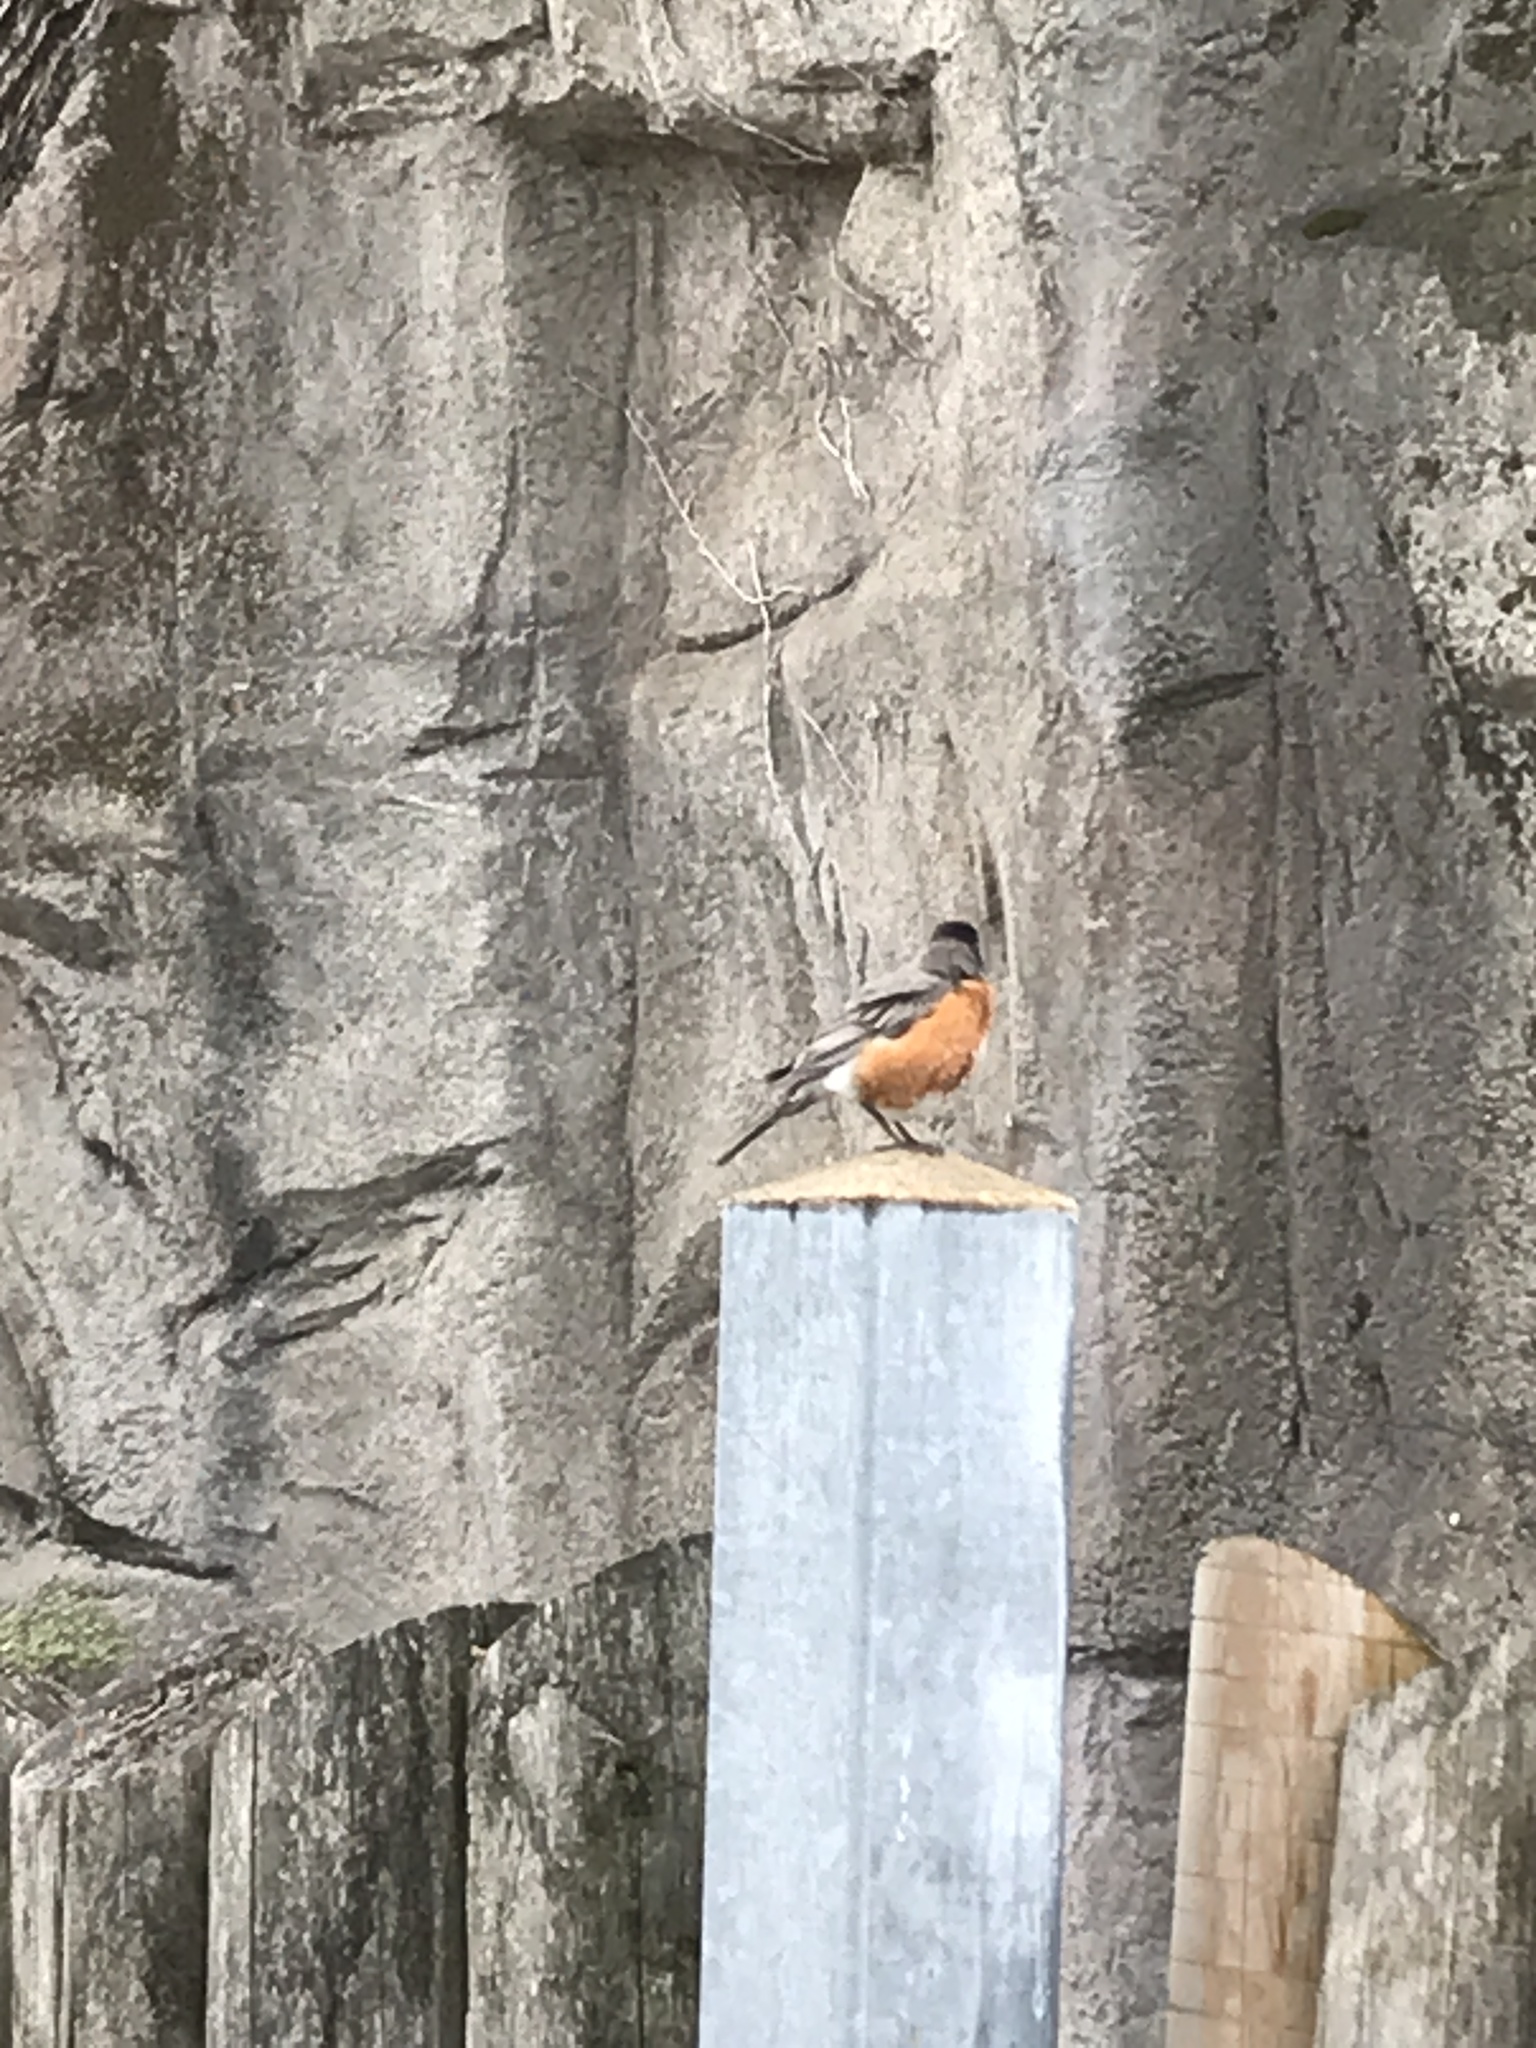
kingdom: Animalia
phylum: Chordata
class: Aves
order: Passeriformes
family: Turdidae
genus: Turdus
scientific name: Turdus migratorius
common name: American robin
